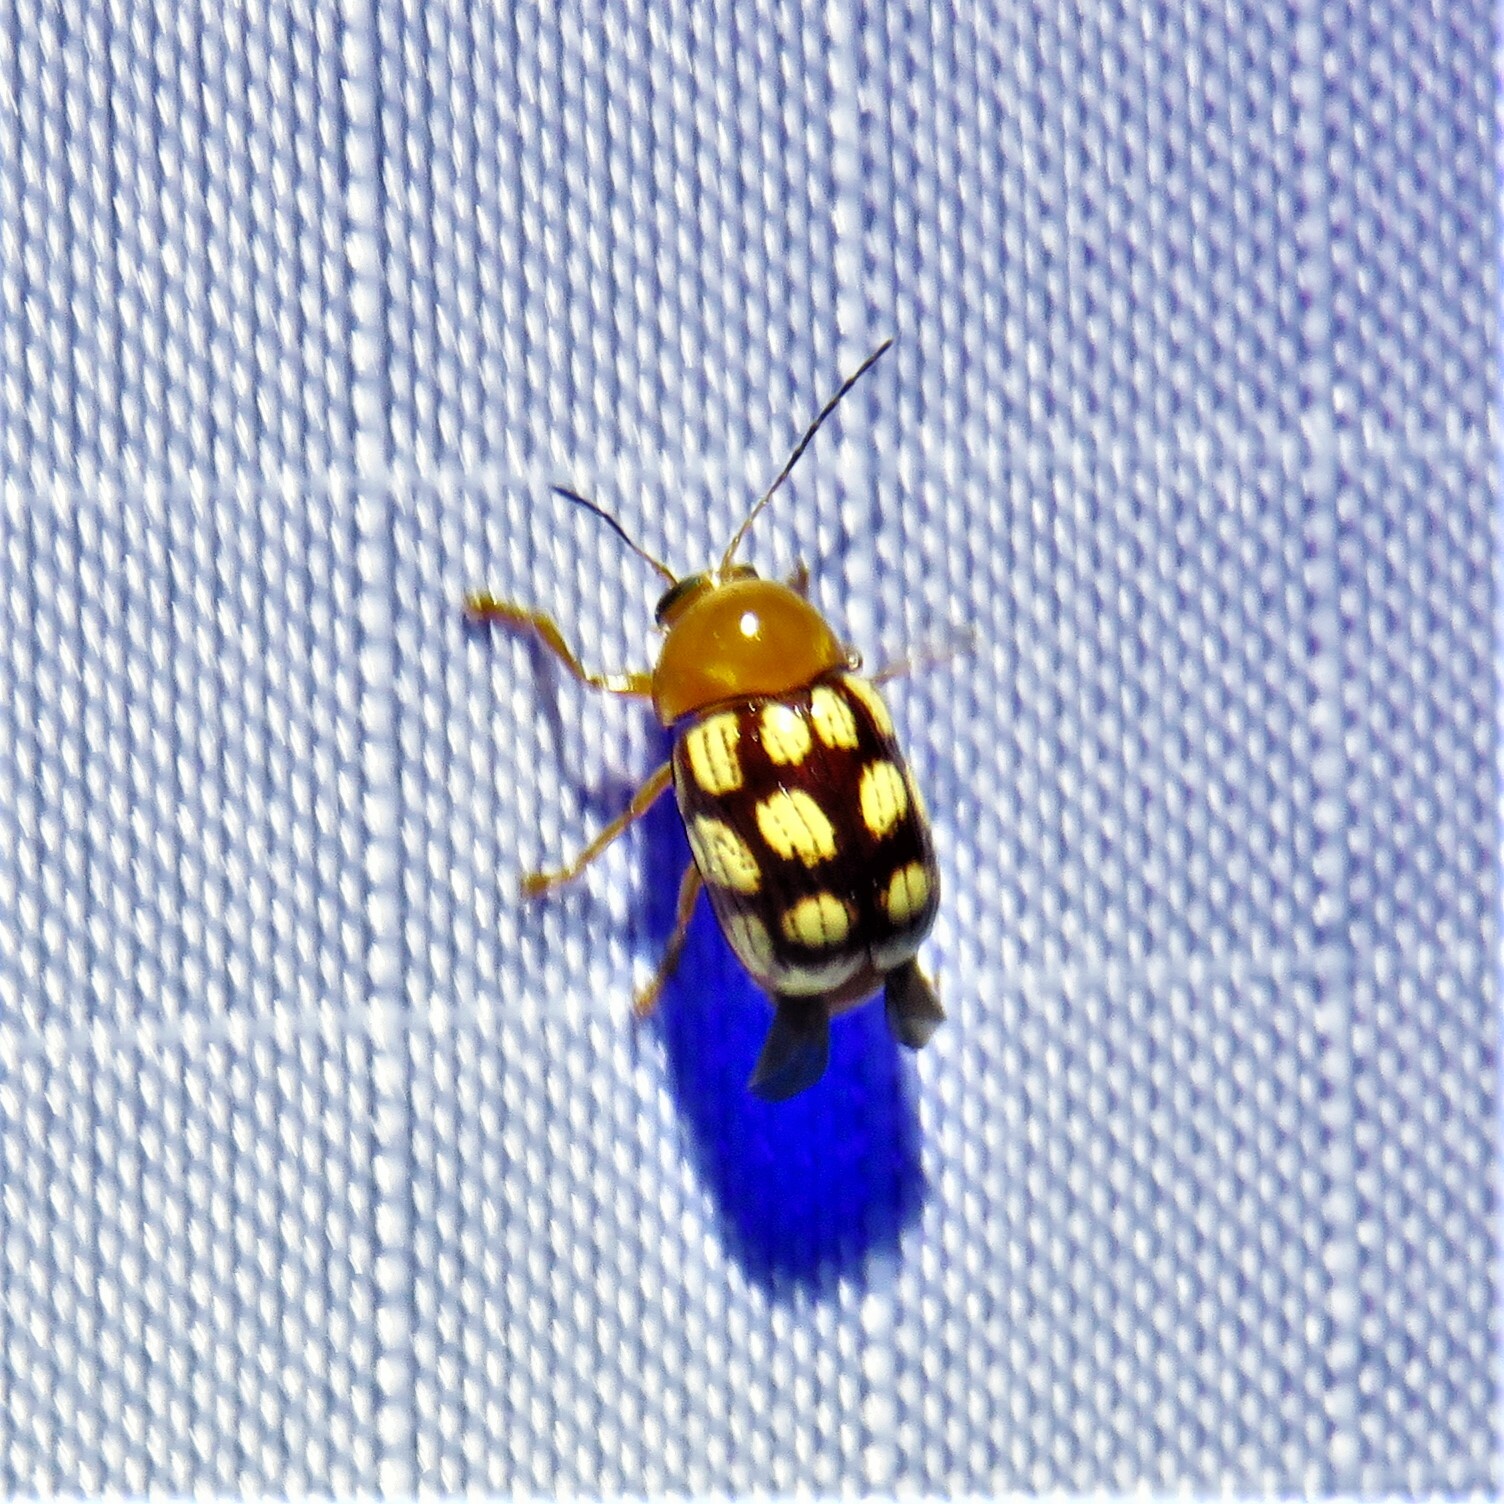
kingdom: Animalia
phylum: Arthropoda
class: Insecta
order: Coleoptera
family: Chrysomelidae
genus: Cryptocephalus
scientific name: Cryptocephalus guttulatus
